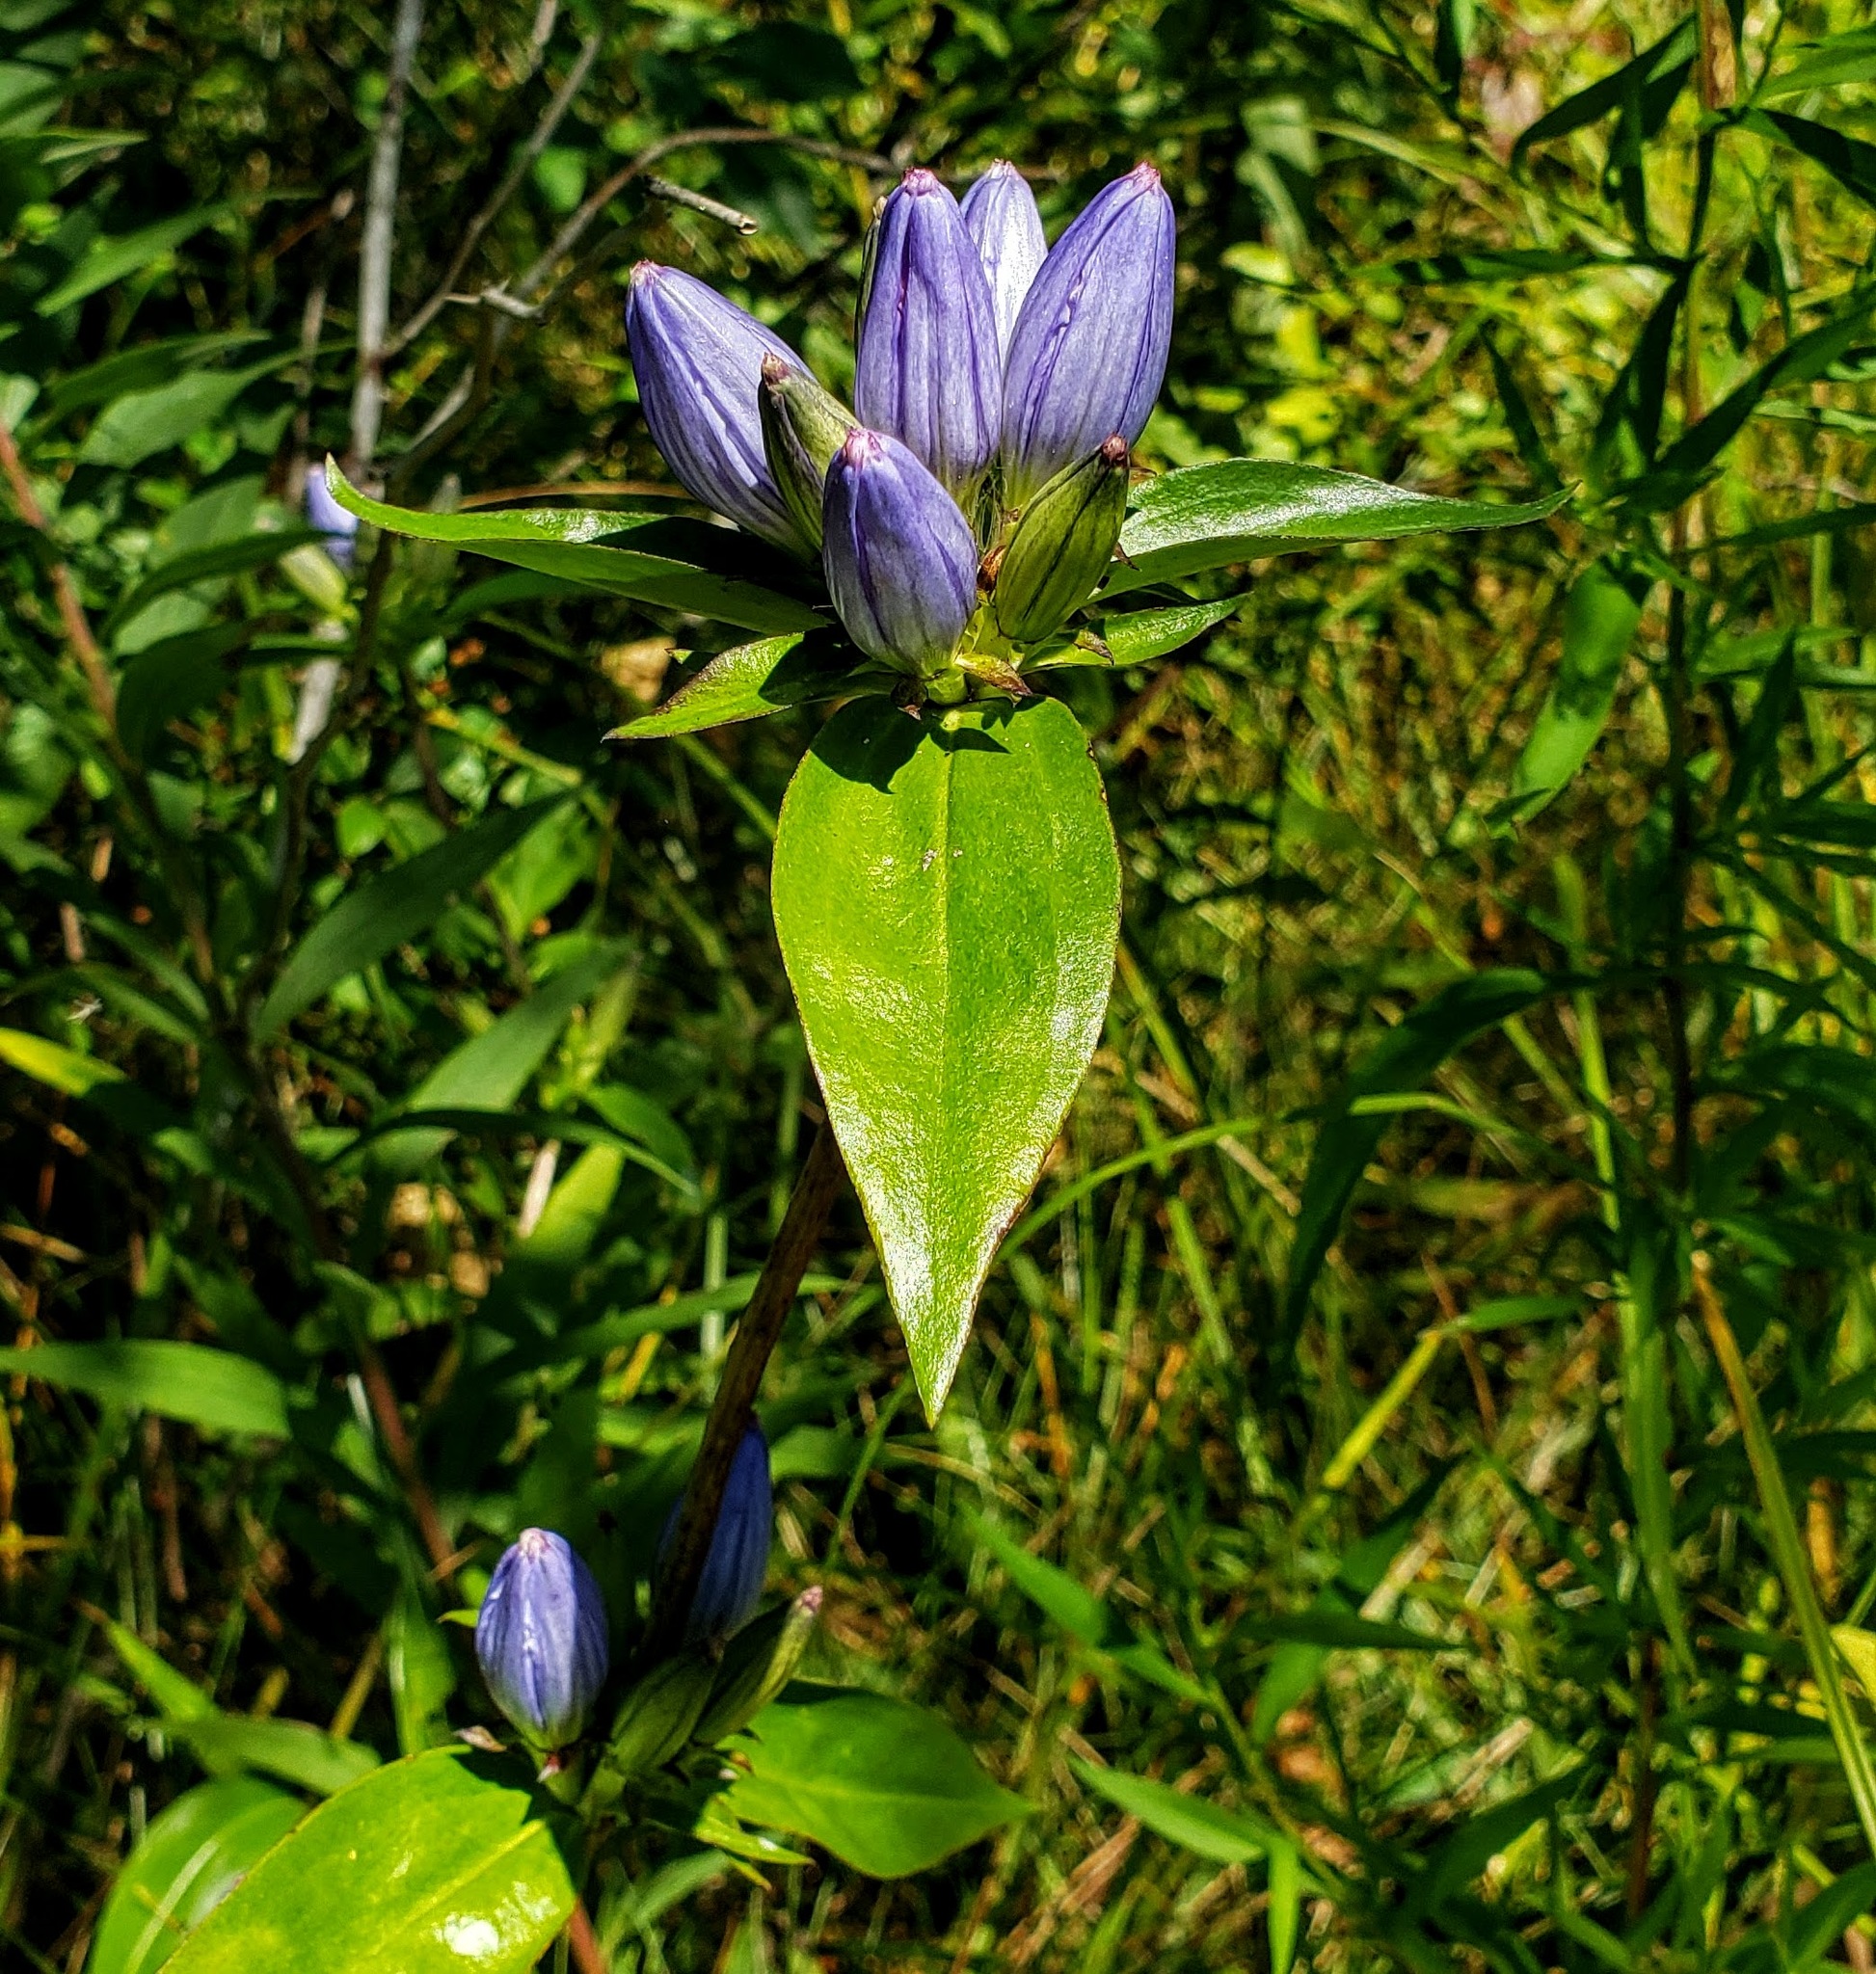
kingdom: Plantae
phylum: Tracheophyta
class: Magnoliopsida
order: Gentianales
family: Gentianaceae
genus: Gentiana
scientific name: Gentiana andrewsii
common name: Bottle gentian
